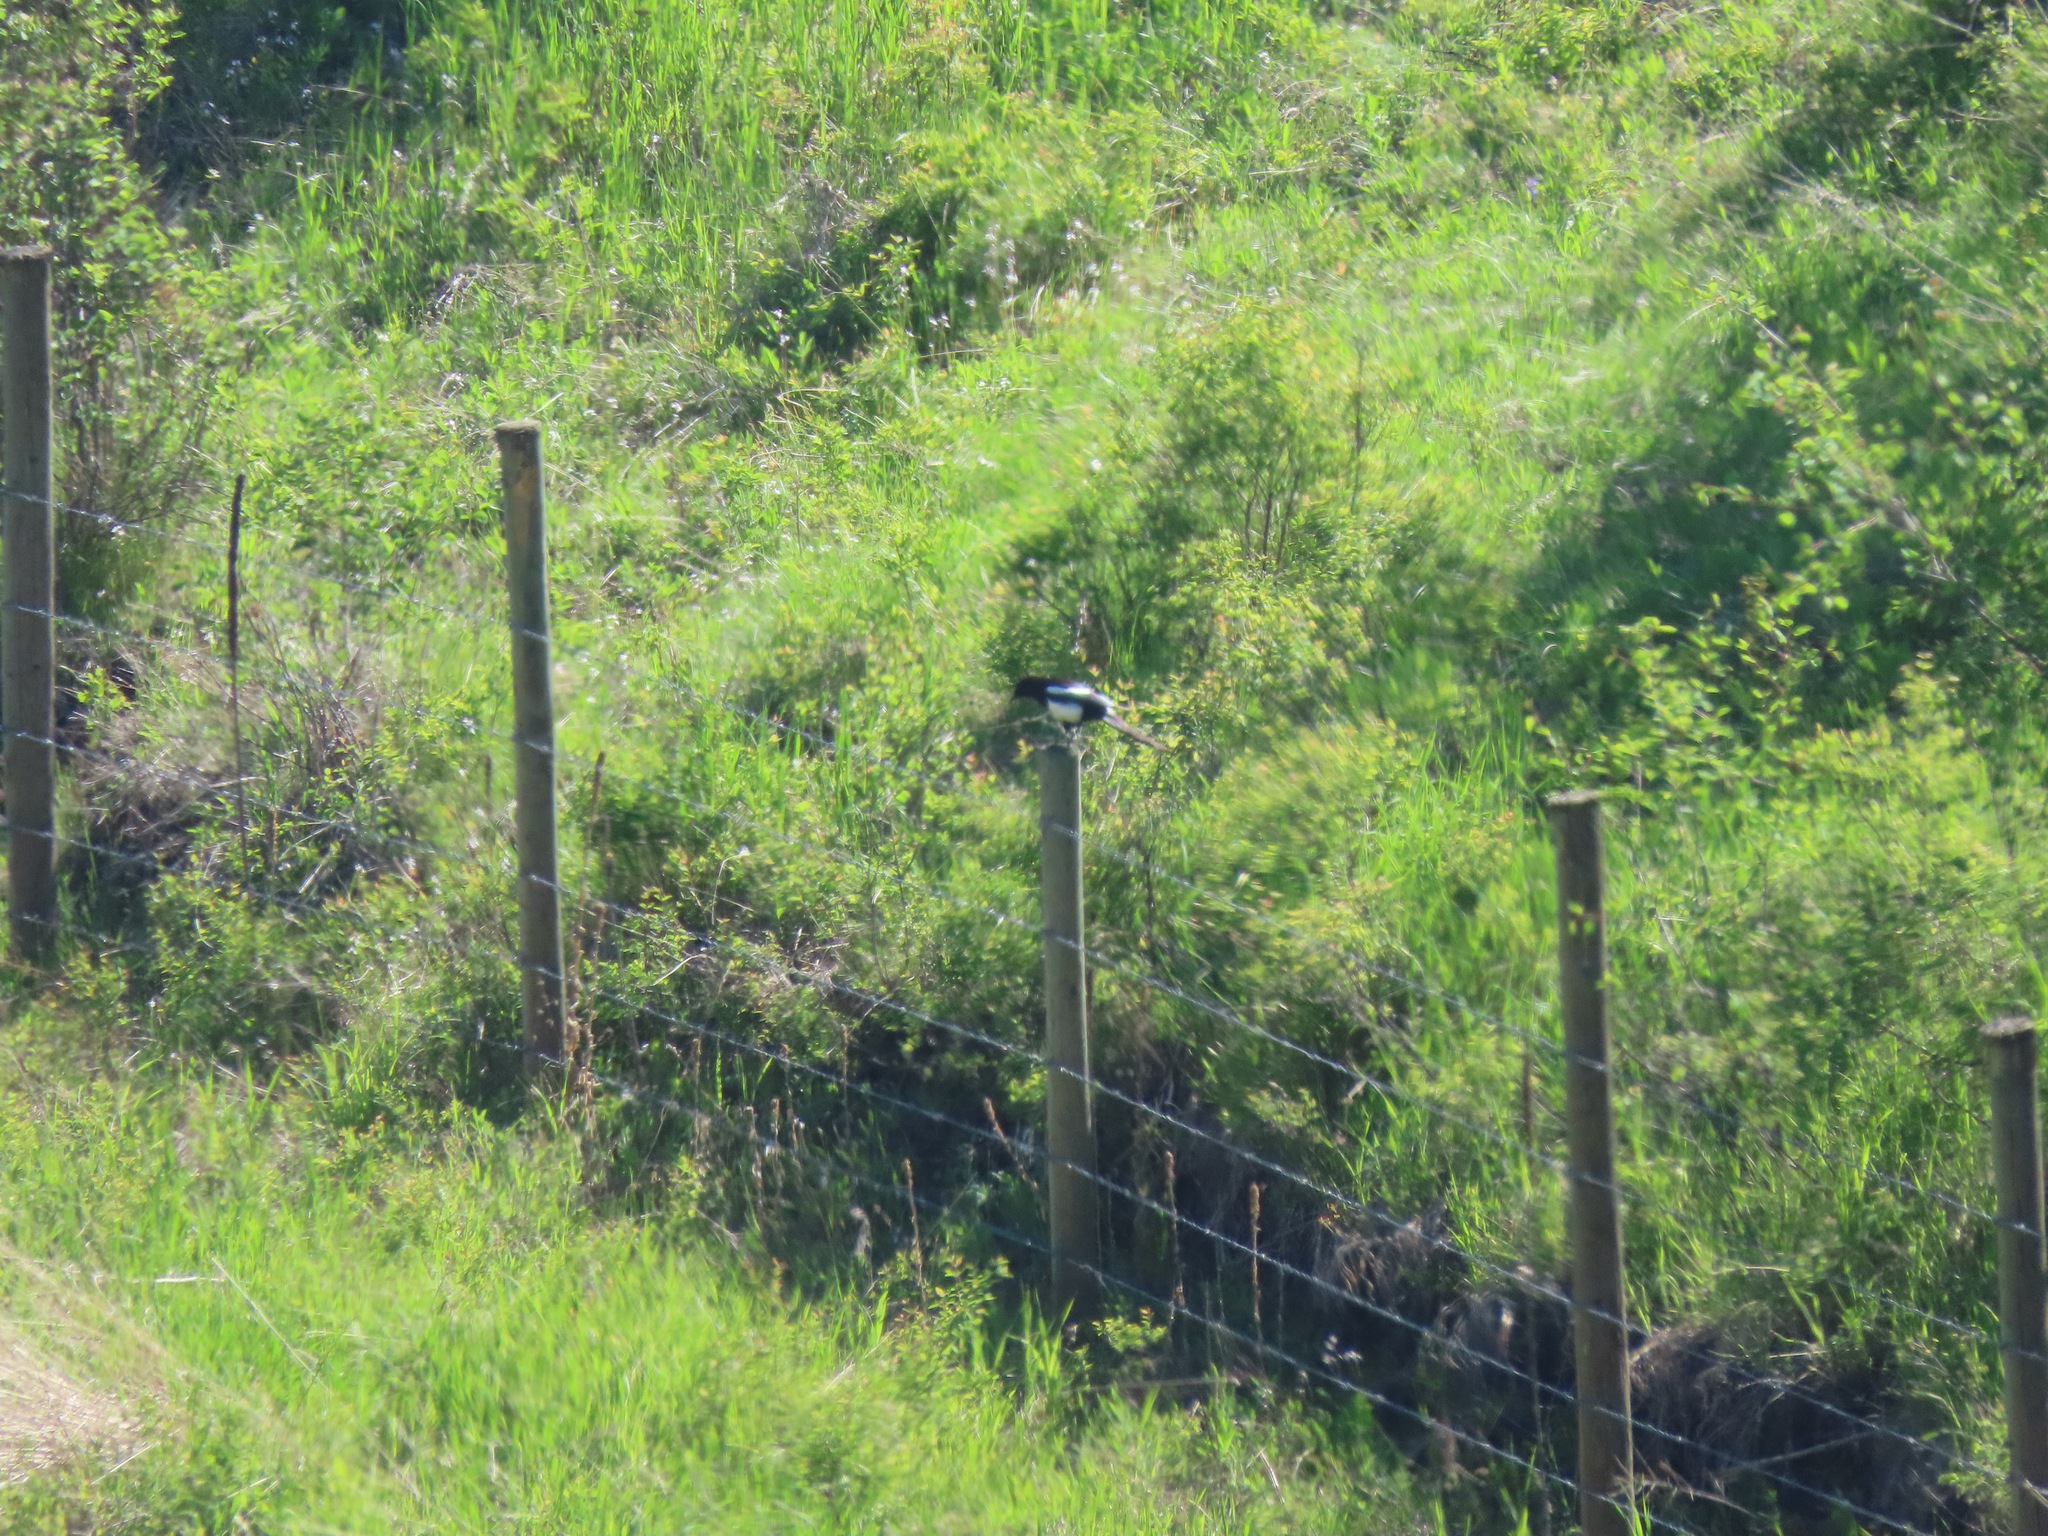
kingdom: Animalia
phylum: Chordata
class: Aves
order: Passeriformes
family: Corvidae
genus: Pica
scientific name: Pica hudsonia
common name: Black-billed magpie
